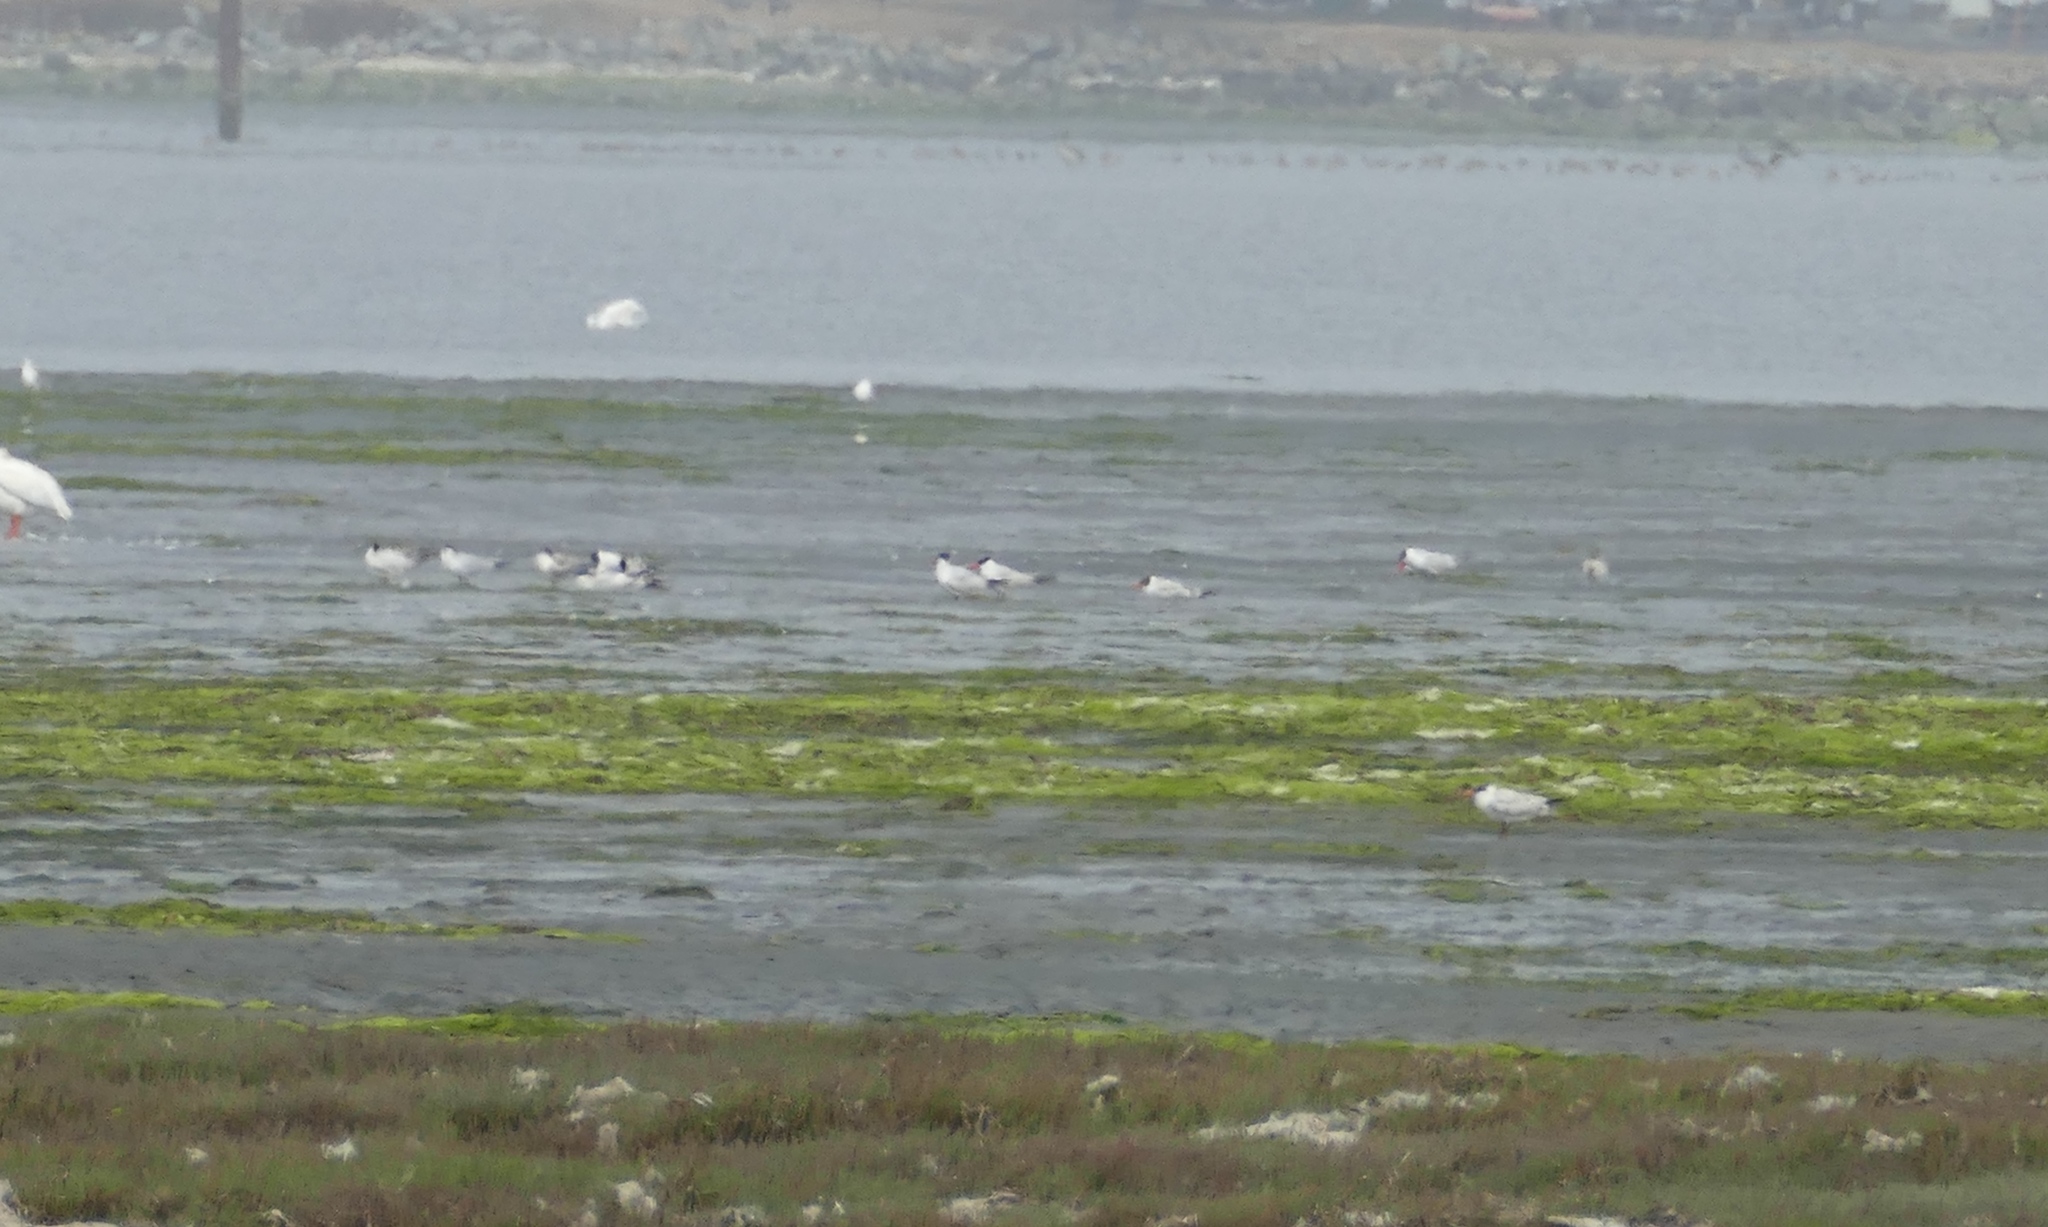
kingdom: Animalia
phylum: Chordata
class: Aves
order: Charadriiformes
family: Laridae
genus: Hydroprogne
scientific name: Hydroprogne caspia
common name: Caspian tern
